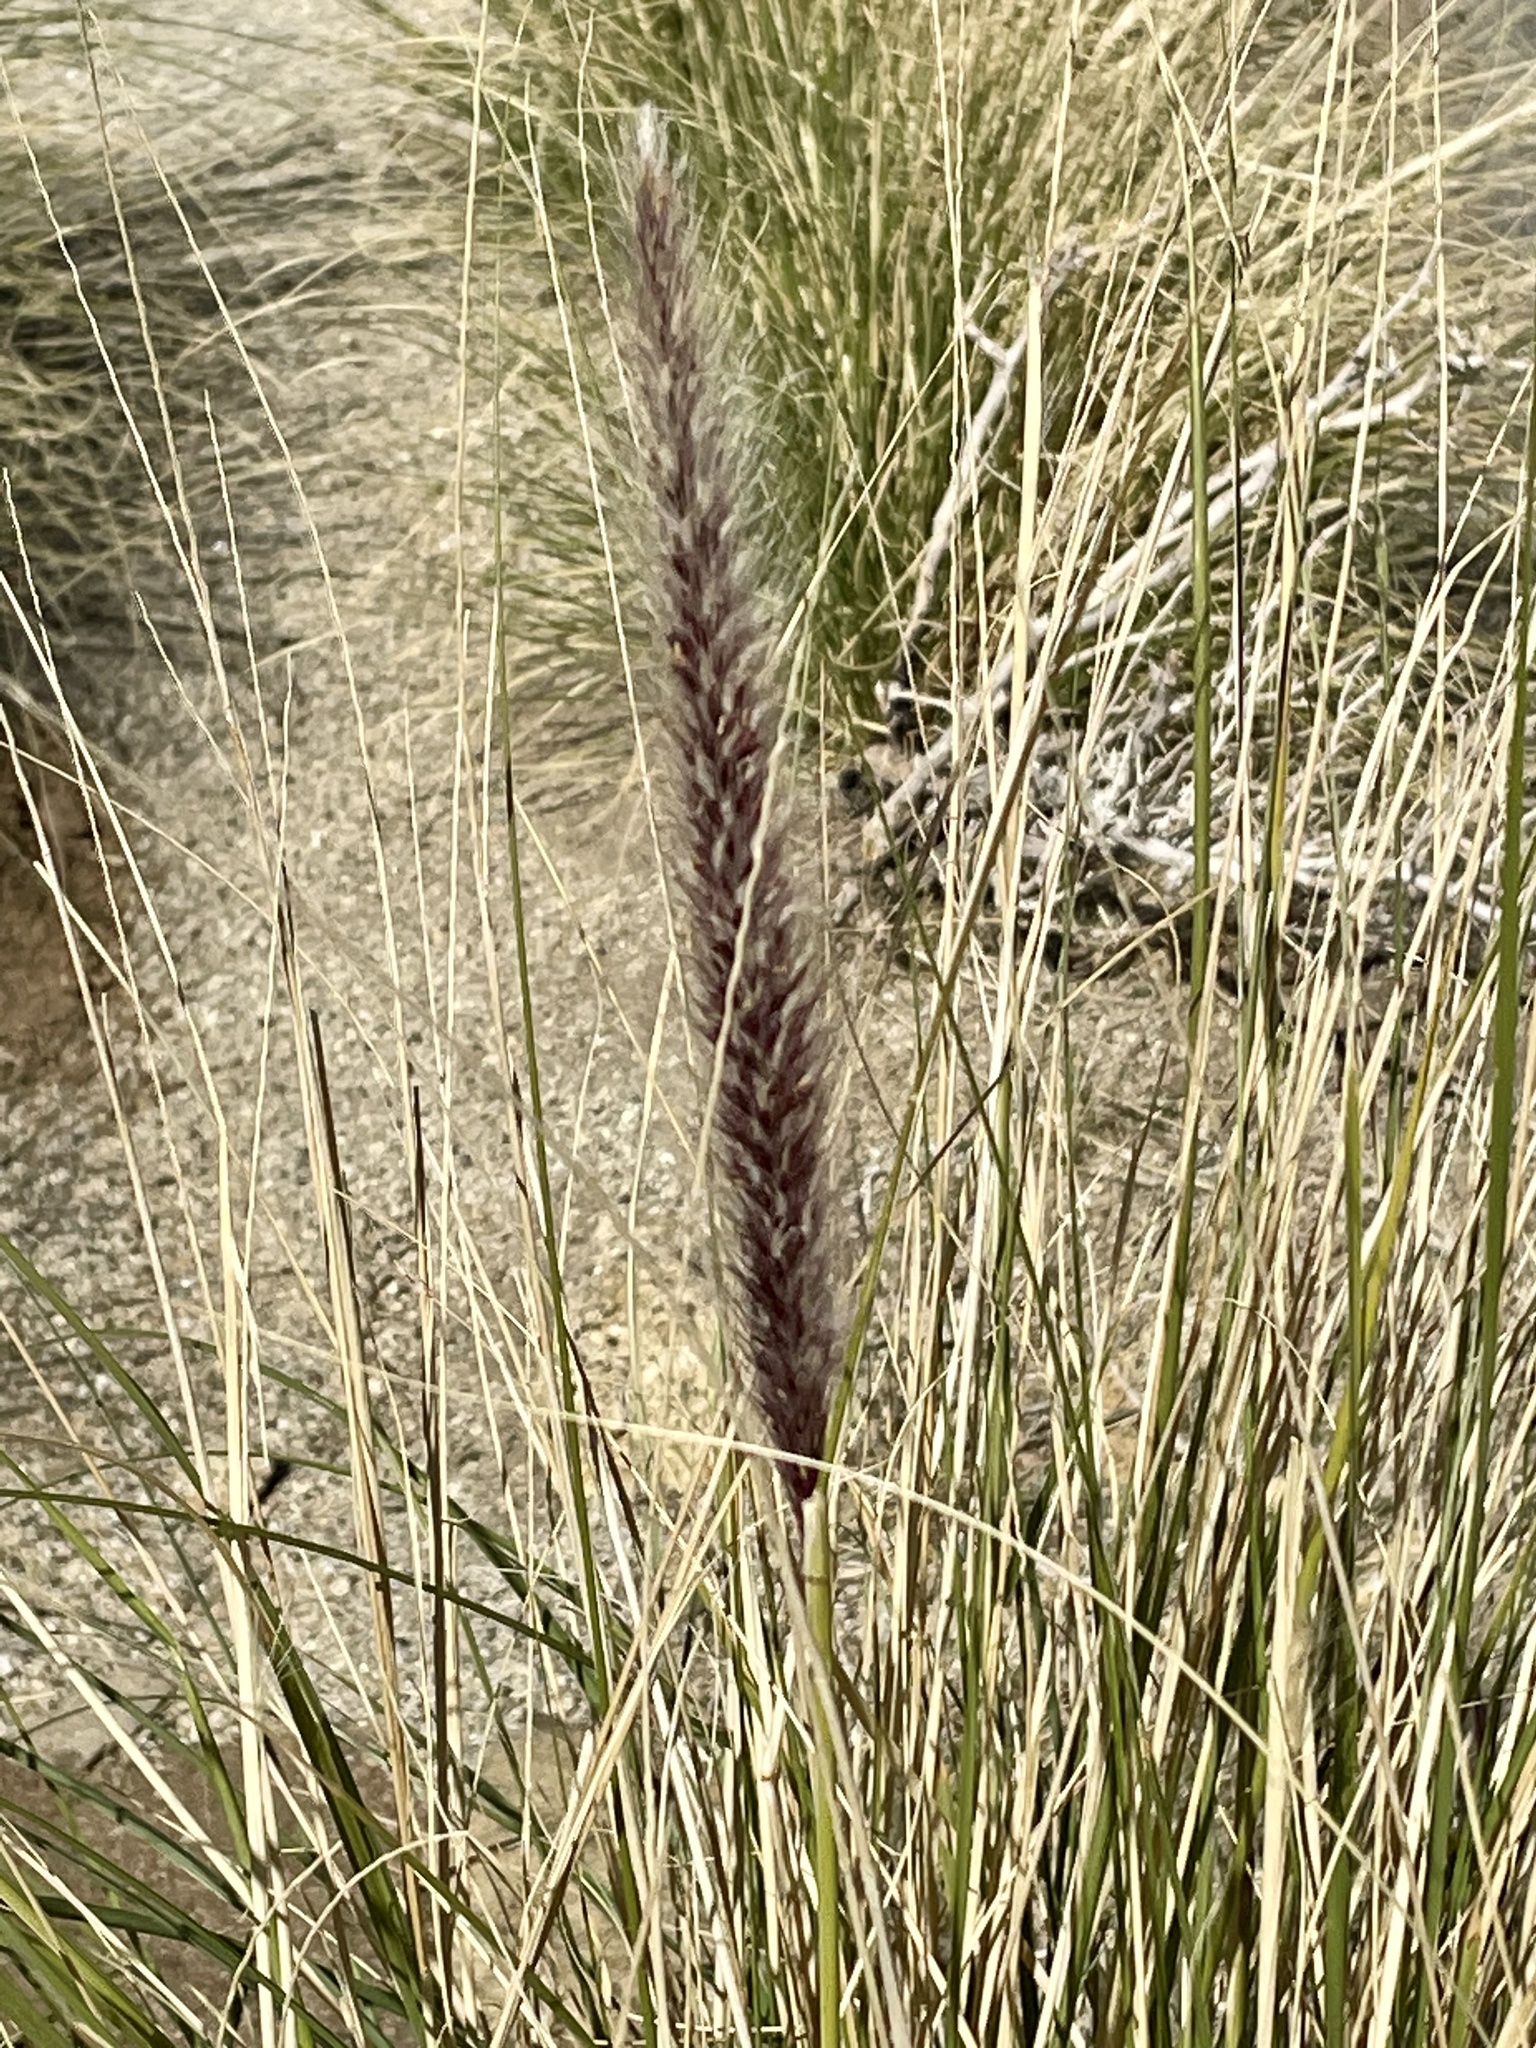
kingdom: Plantae
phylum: Tracheophyta
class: Liliopsida
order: Poales
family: Poaceae
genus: Cenchrus
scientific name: Cenchrus setaceus
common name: Crimson fountaingrass
